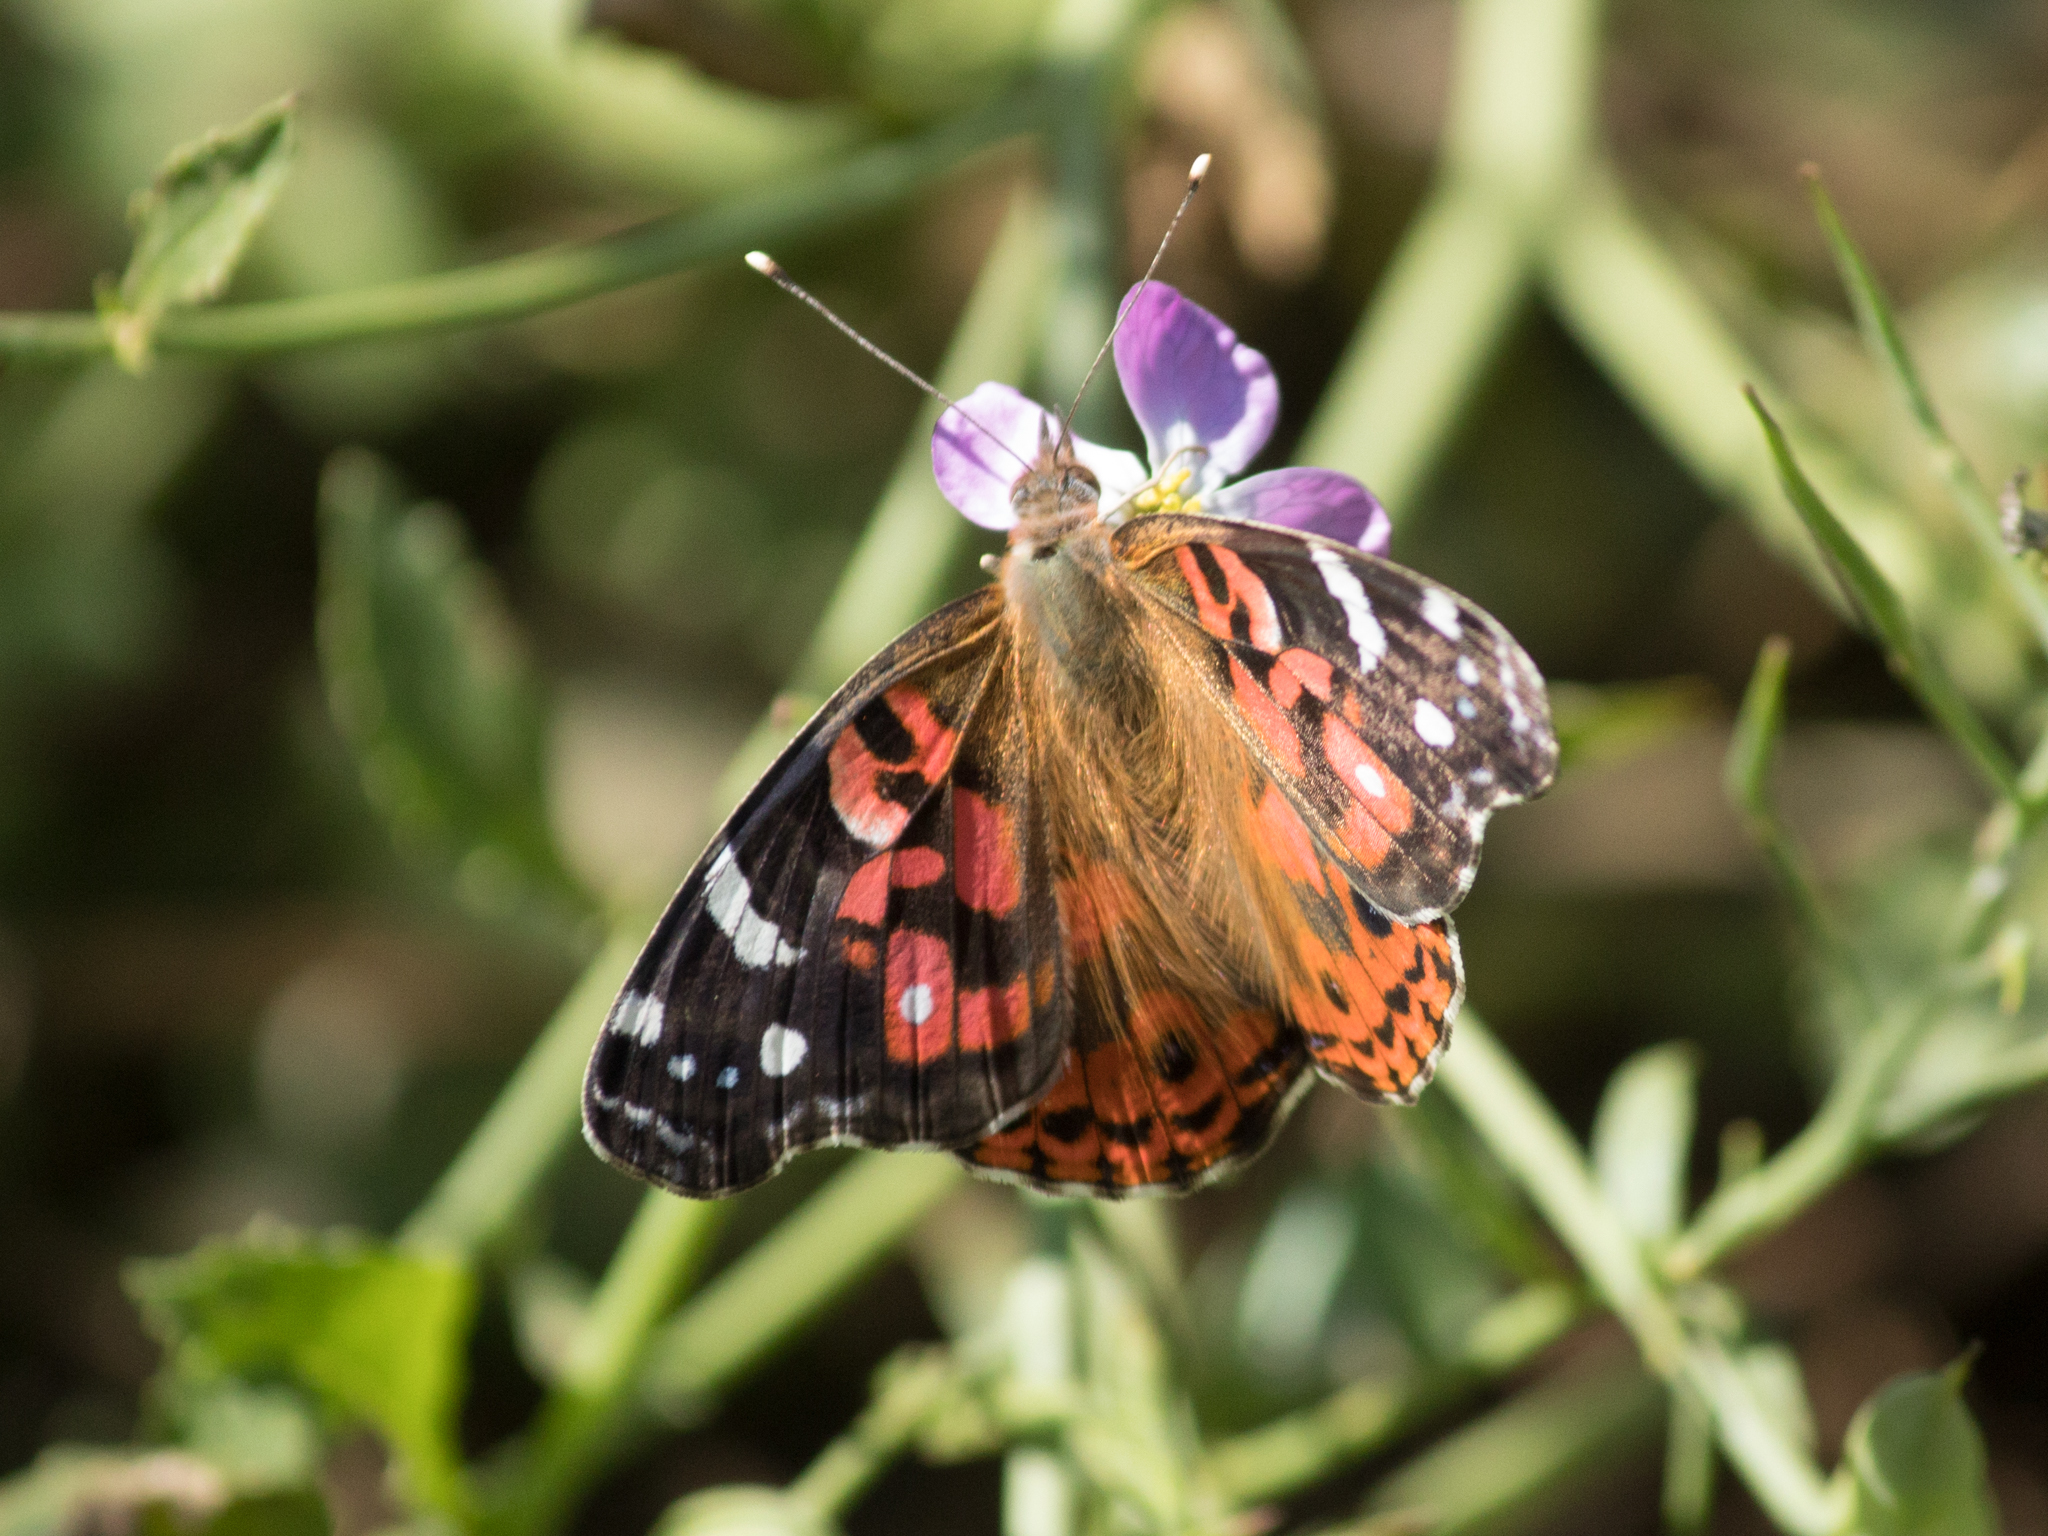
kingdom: Animalia
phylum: Arthropoda
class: Insecta
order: Lepidoptera
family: Nymphalidae
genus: Vanessa
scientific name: Vanessa braziliensis
